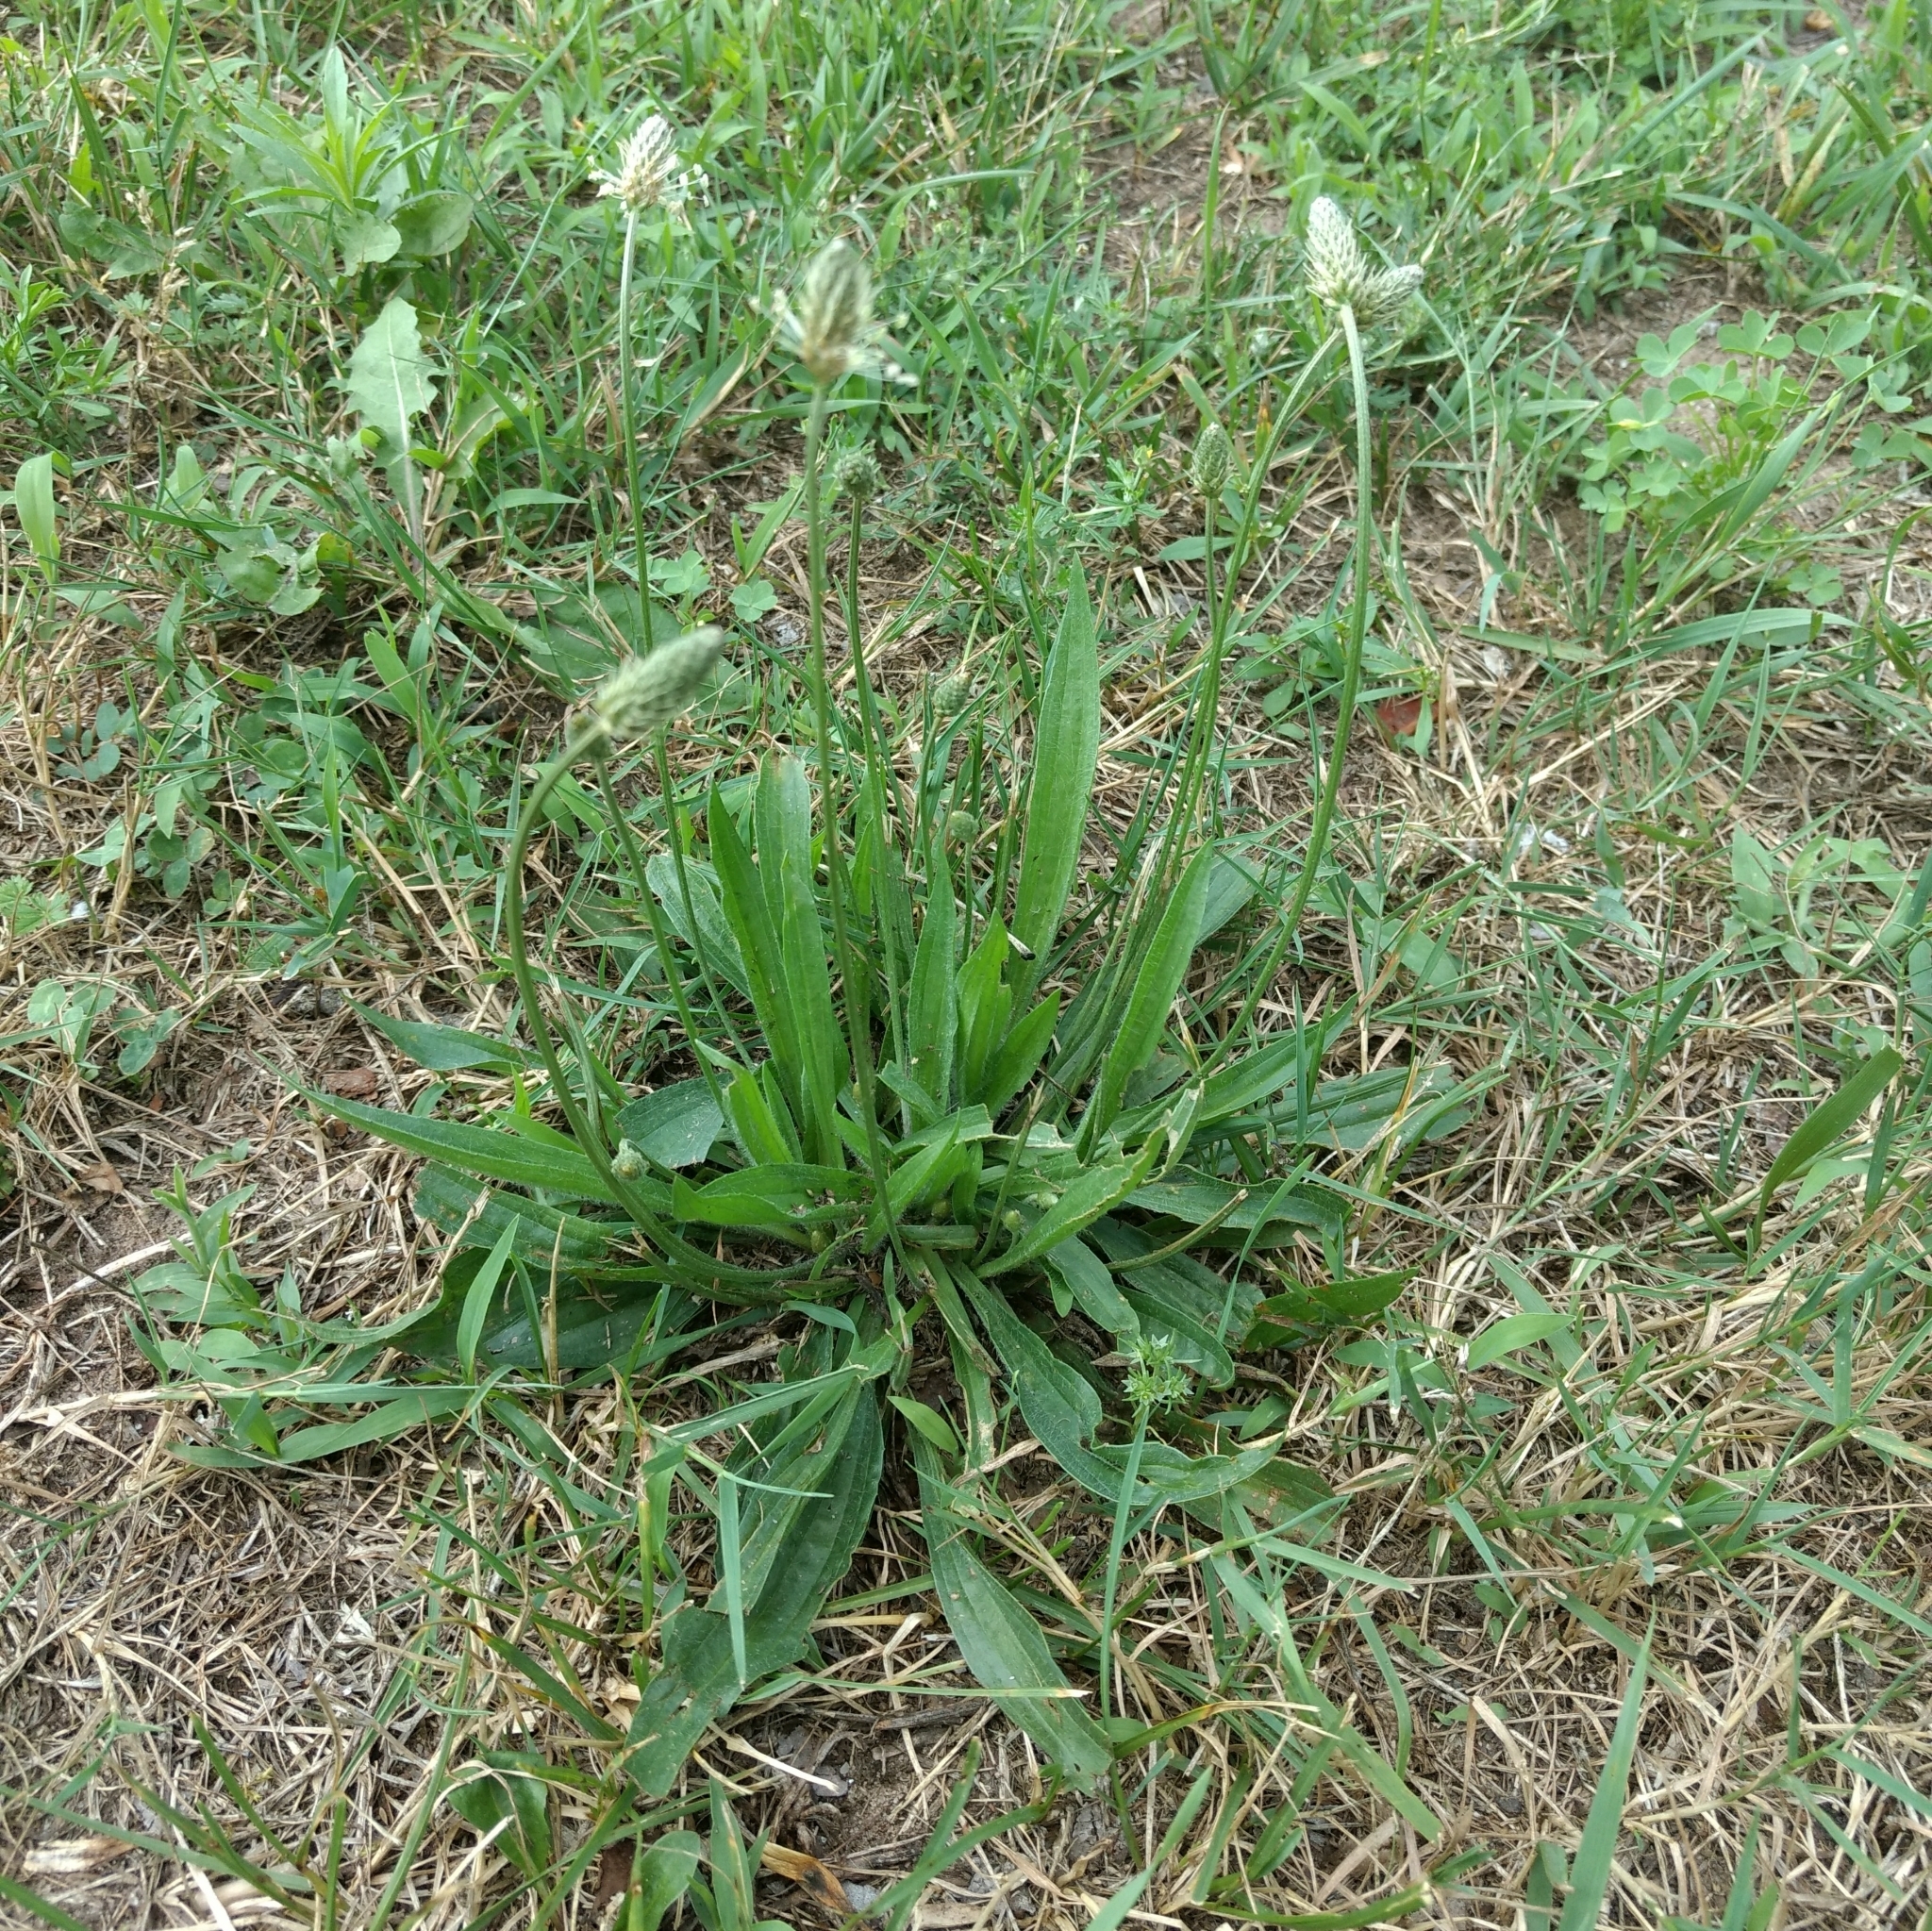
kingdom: Plantae
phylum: Tracheophyta
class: Magnoliopsida
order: Lamiales
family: Plantaginaceae
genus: Plantago
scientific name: Plantago lanceolata
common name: Ribwort plantain
